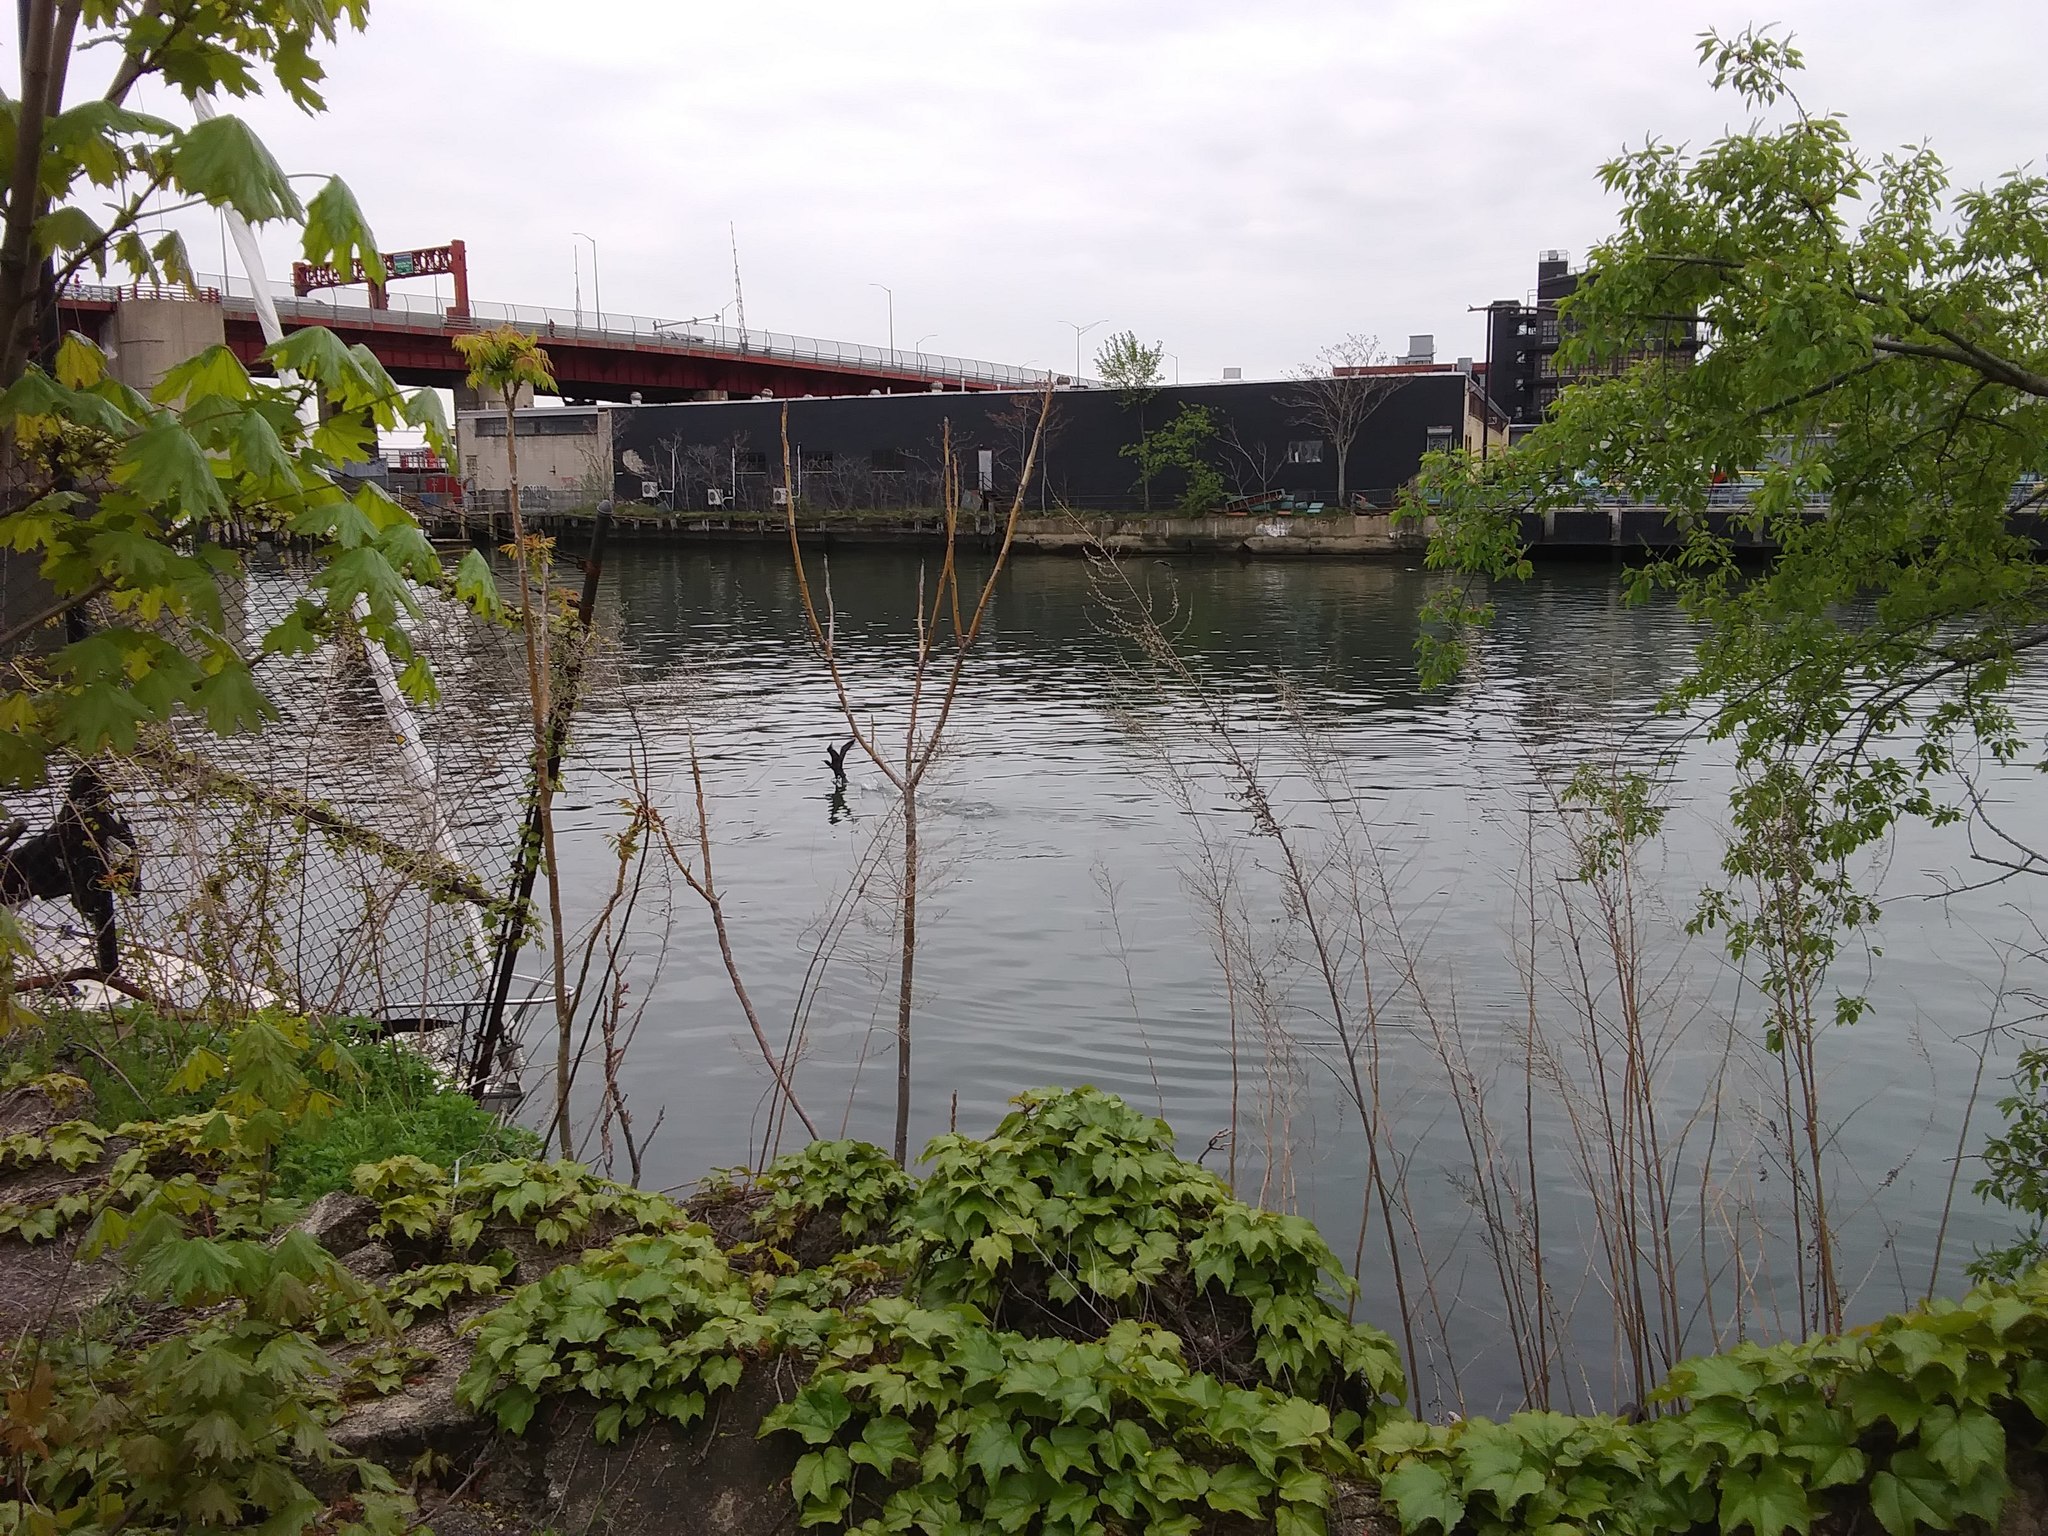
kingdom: Animalia
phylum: Chordata
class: Aves
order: Suliformes
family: Phalacrocoracidae
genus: Phalacrocorax
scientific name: Phalacrocorax auritus
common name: Double-crested cormorant
